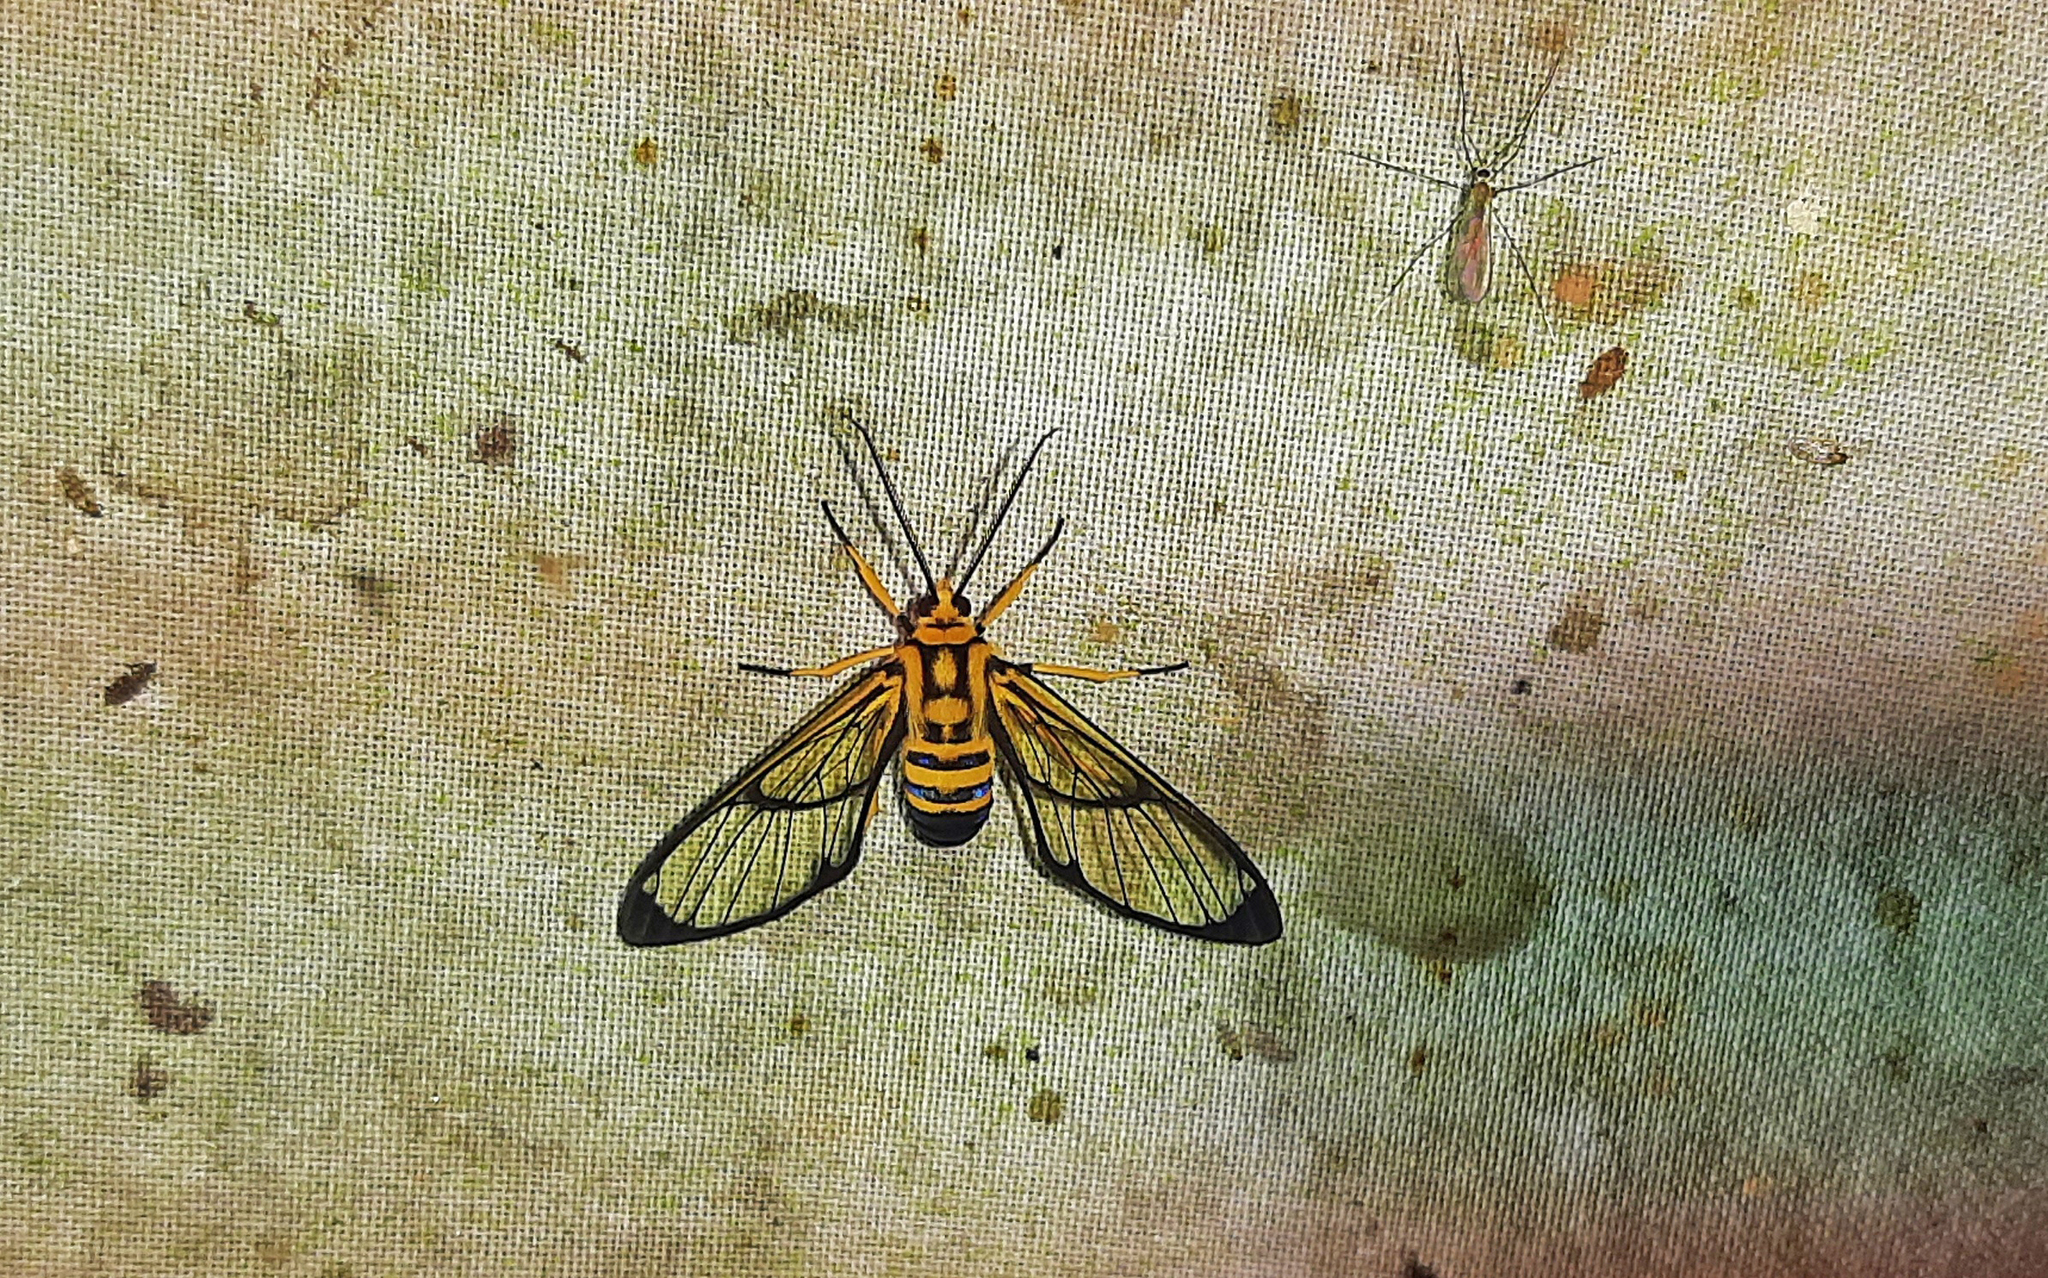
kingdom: Animalia
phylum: Arthropoda
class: Insecta
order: Lepidoptera
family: Erebidae
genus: Mesothen
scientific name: Mesothen nomia
